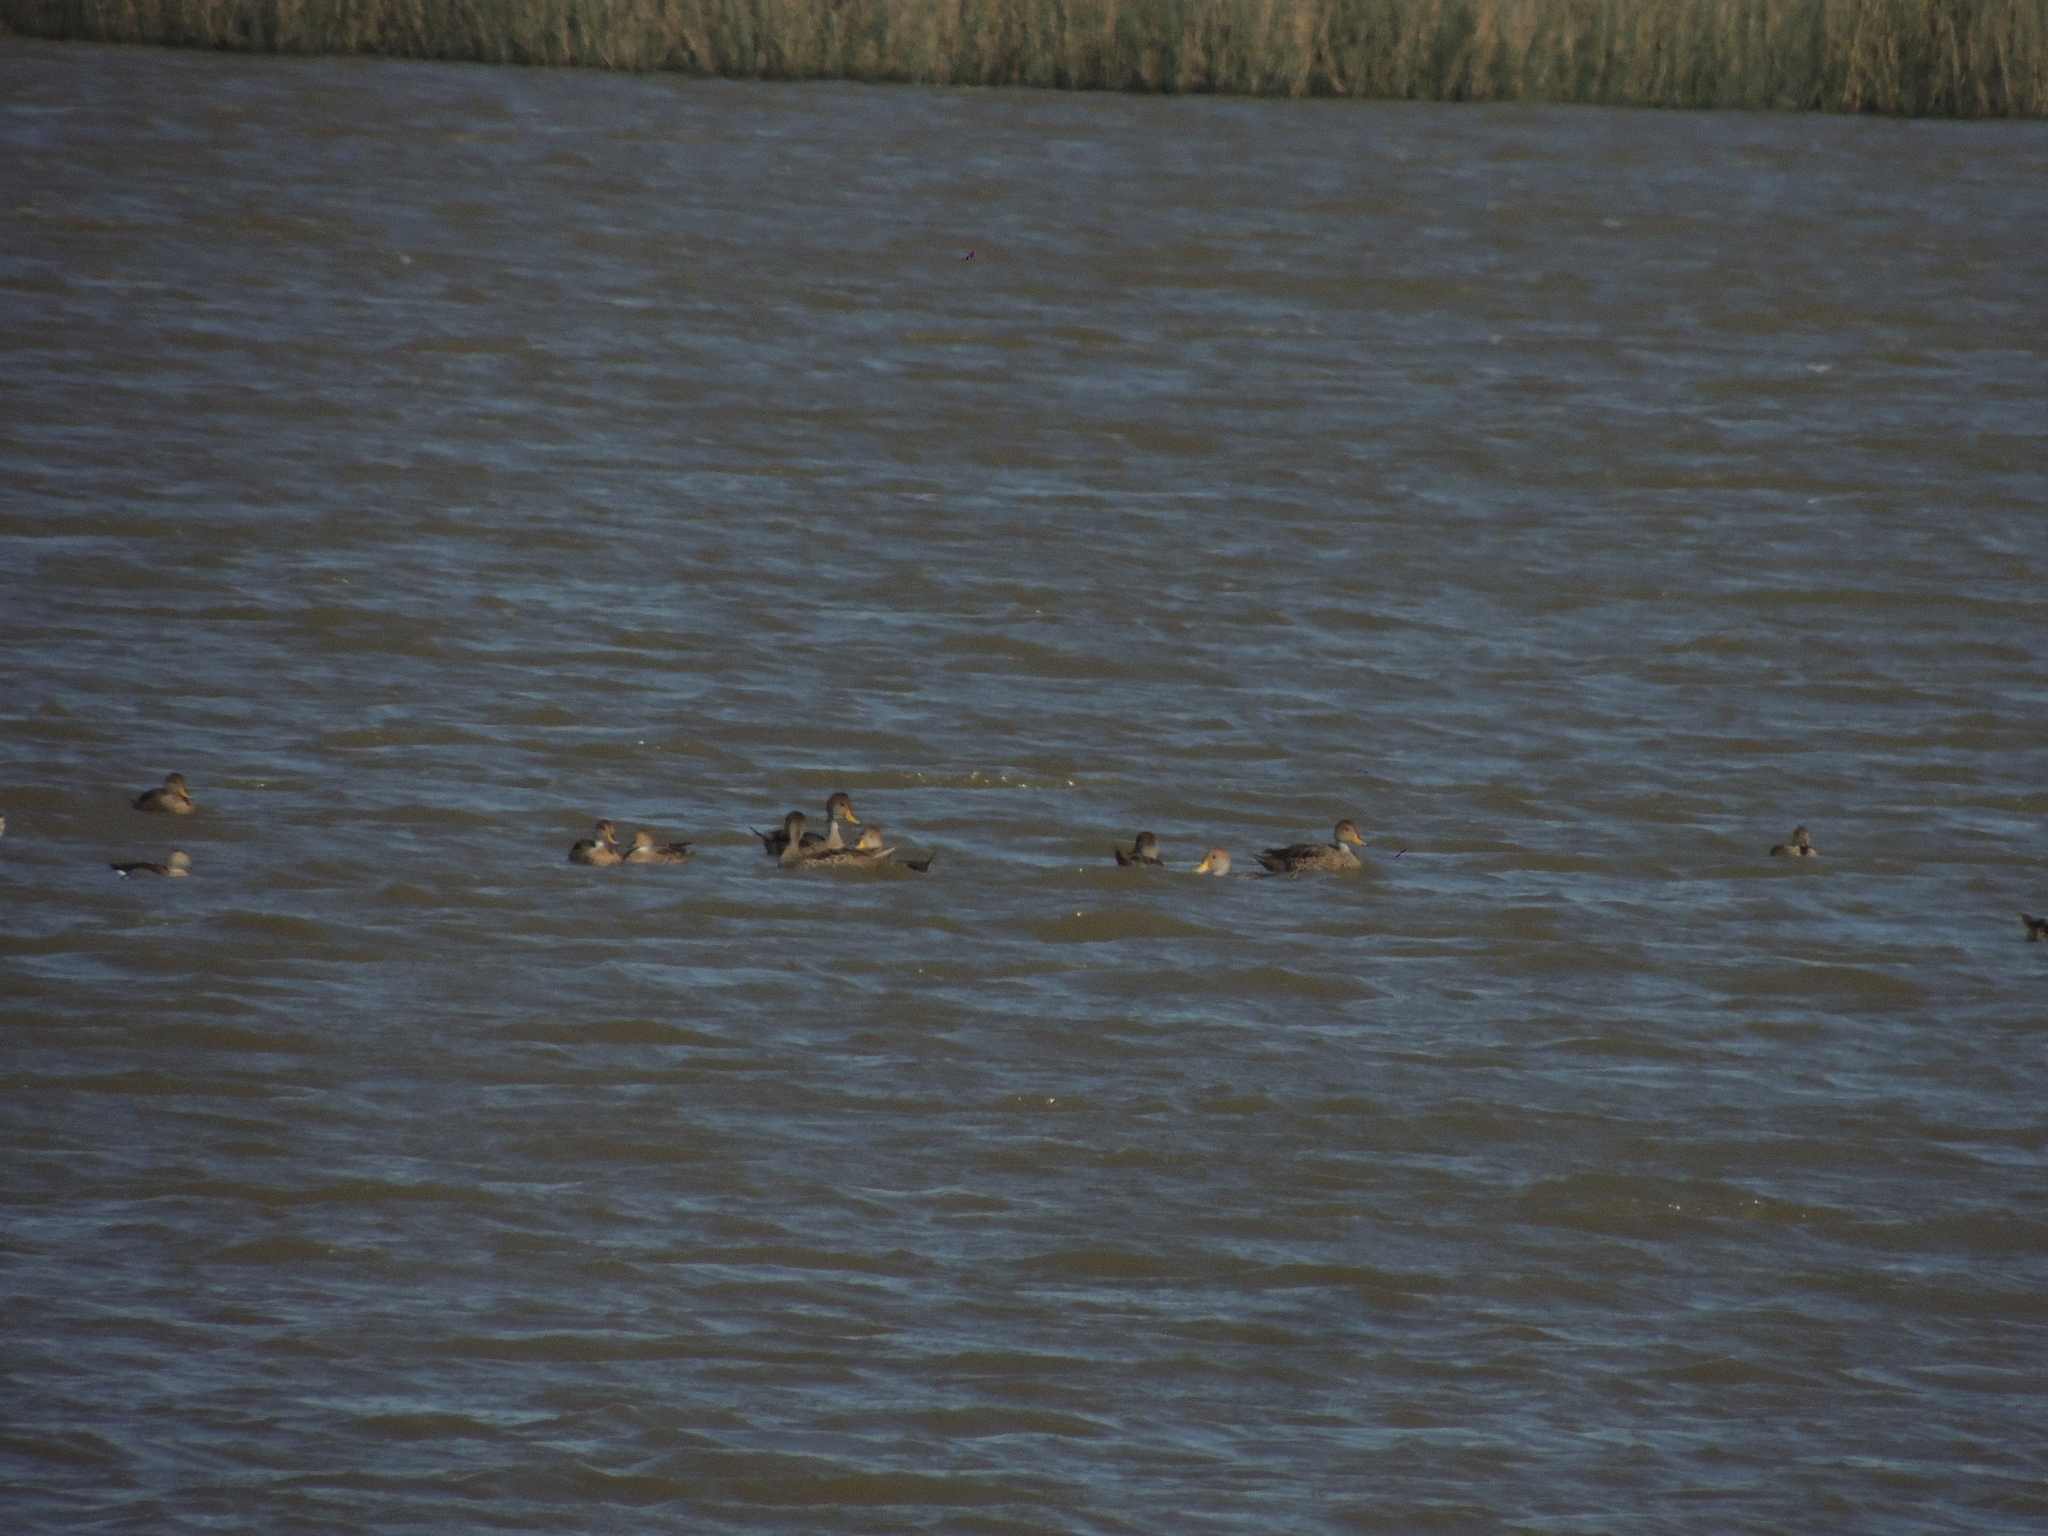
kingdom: Animalia
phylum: Chordata
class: Aves
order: Anseriformes
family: Anatidae
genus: Anas
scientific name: Anas georgica
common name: Yellow-billed pintail
